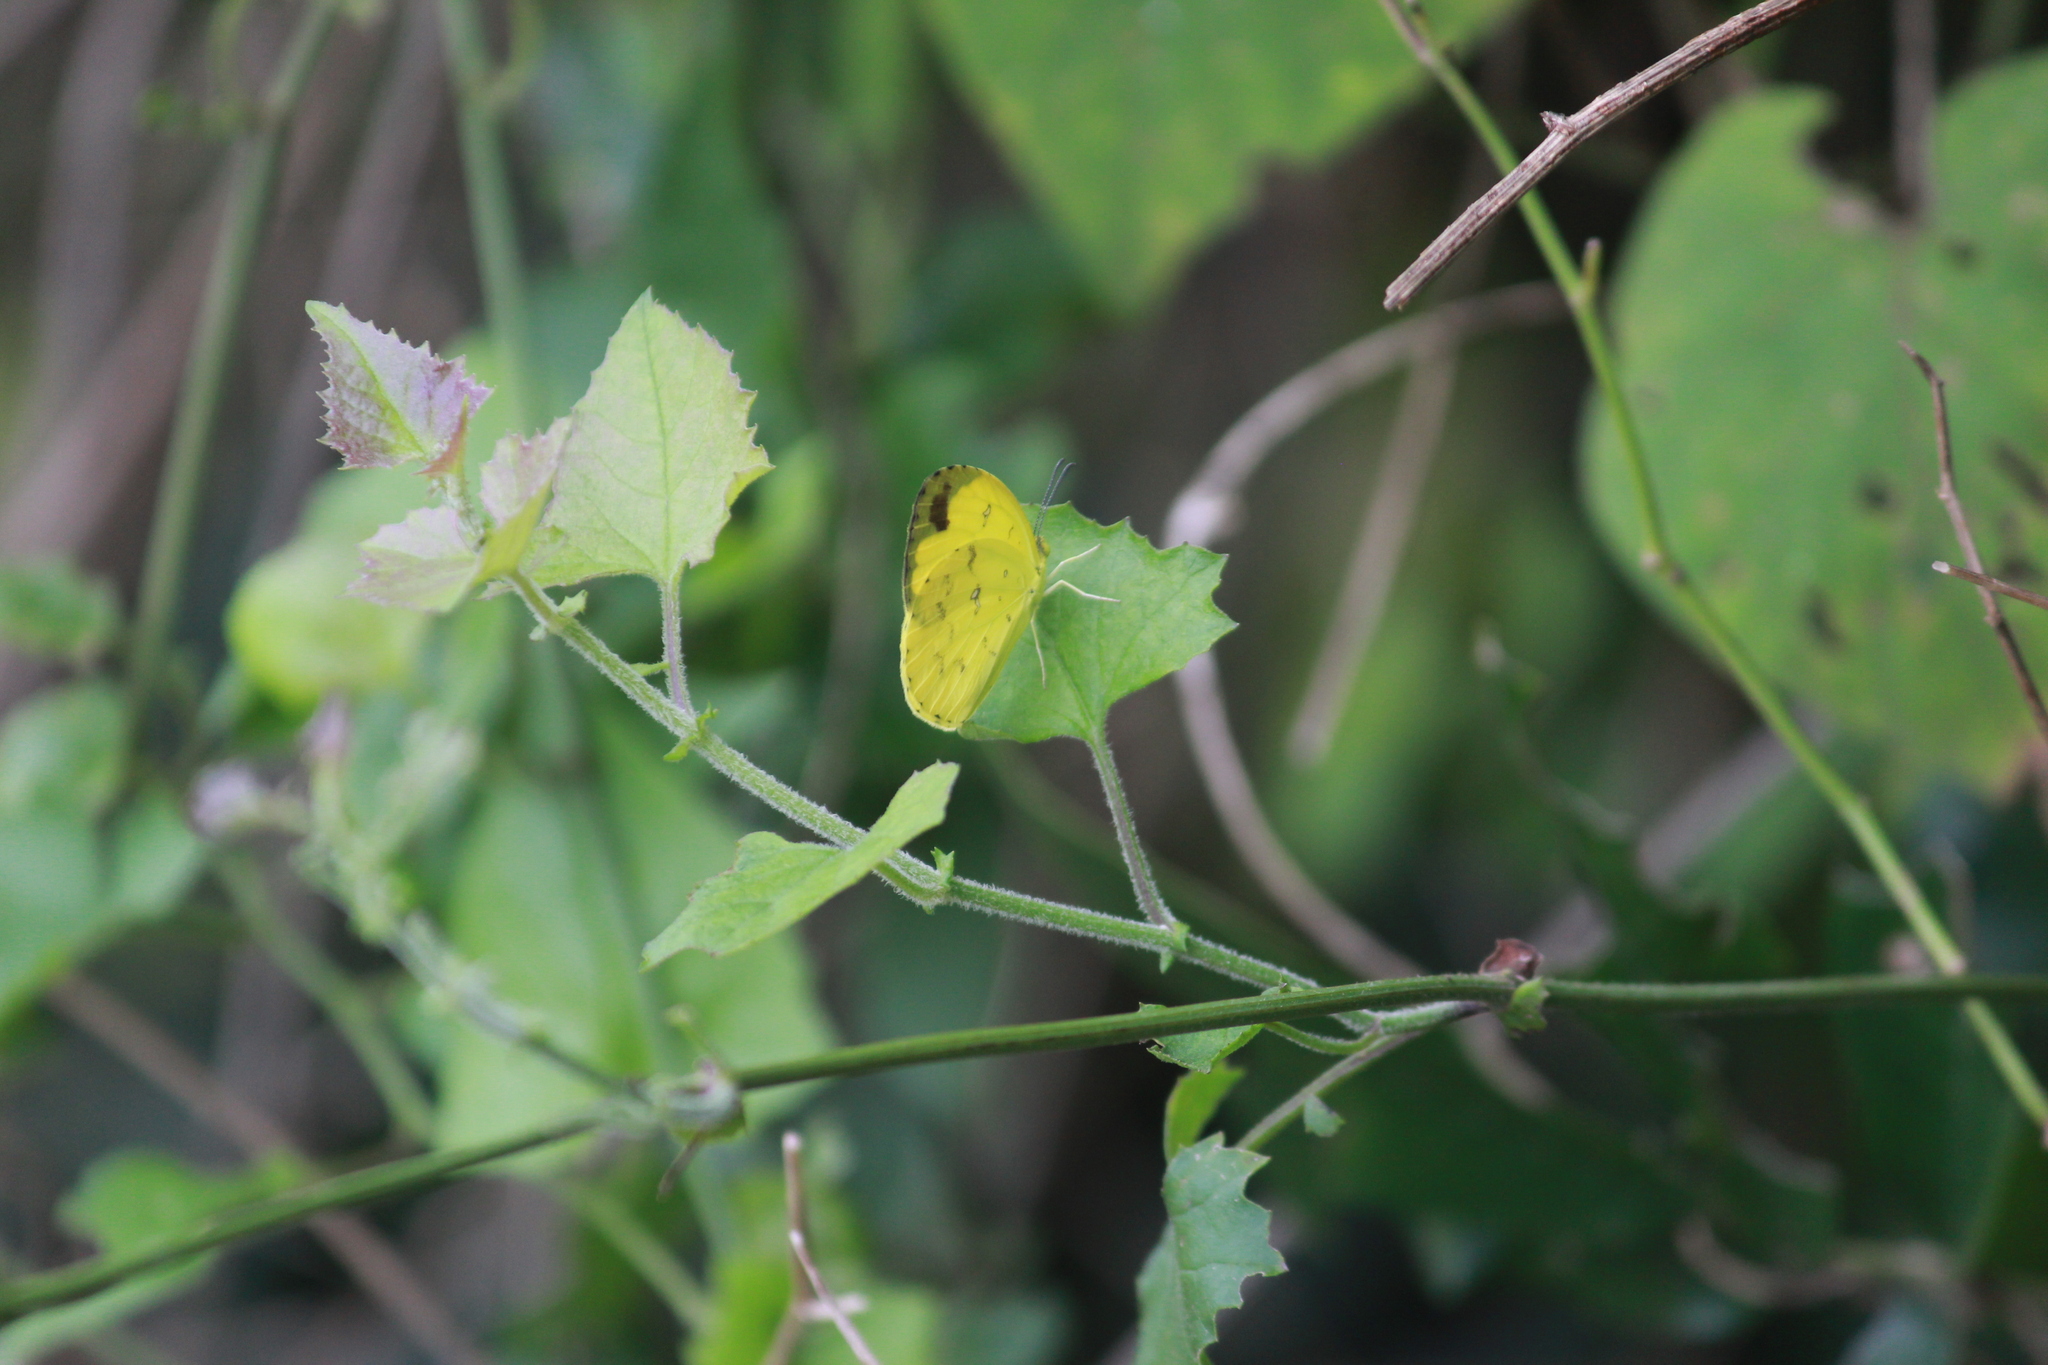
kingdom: Animalia
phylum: Arthropoda
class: Insecta
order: Lepidoptera
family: Pieridae
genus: Eurema
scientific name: Eurema hecabe
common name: Pale grass yellow
